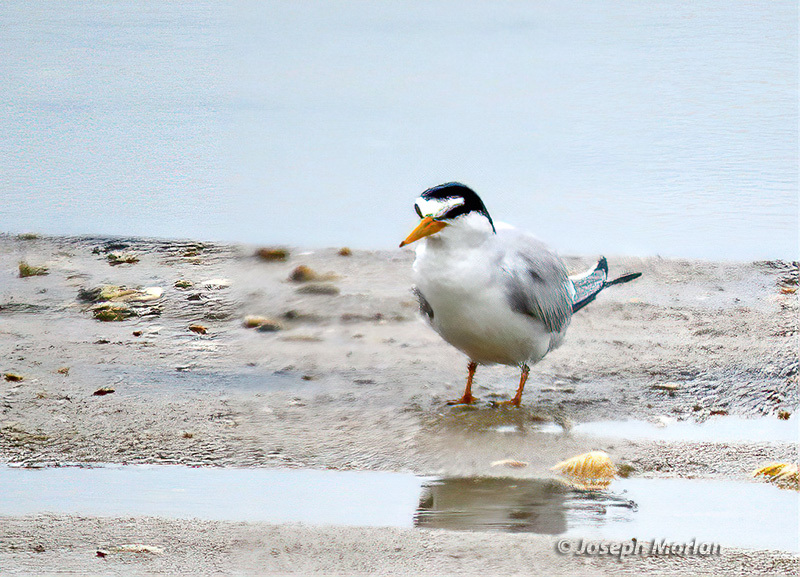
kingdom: Animalia
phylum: Chordata
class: Aves
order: Charadriiformes
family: Laridae
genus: Sternula
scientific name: Sternula antillarum
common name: Least tern
